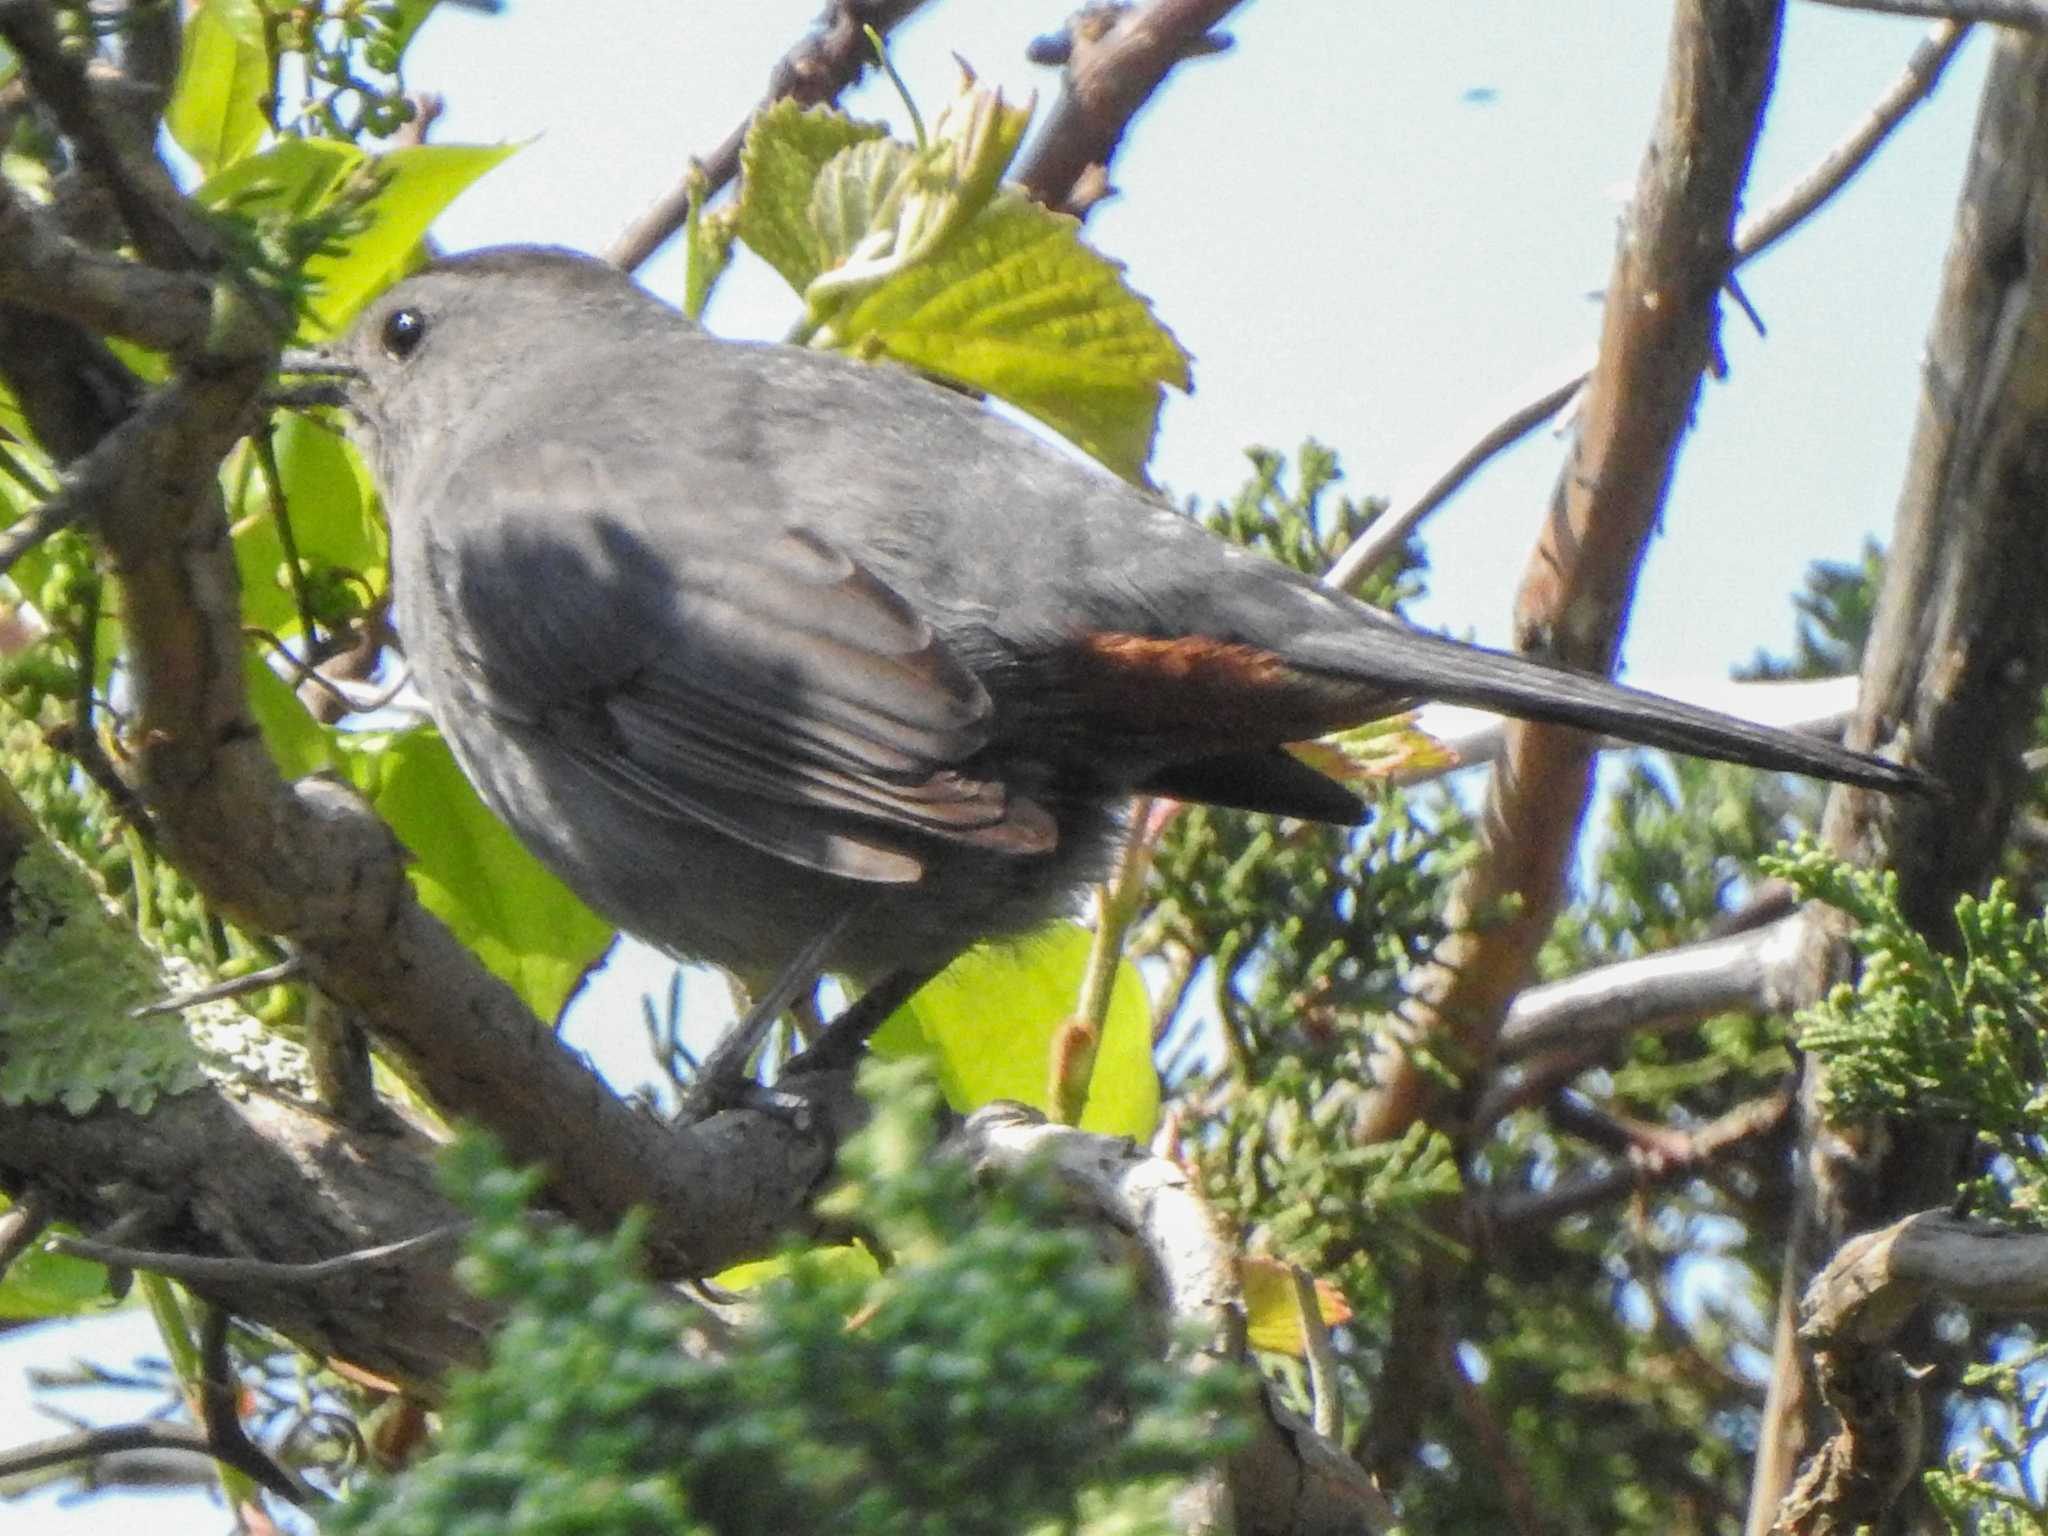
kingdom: Animalia
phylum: Chordata
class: Aves
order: Passeriformes
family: Mimidae
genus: Dumetella
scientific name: Dumetella carolinensis
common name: Gray catbird
